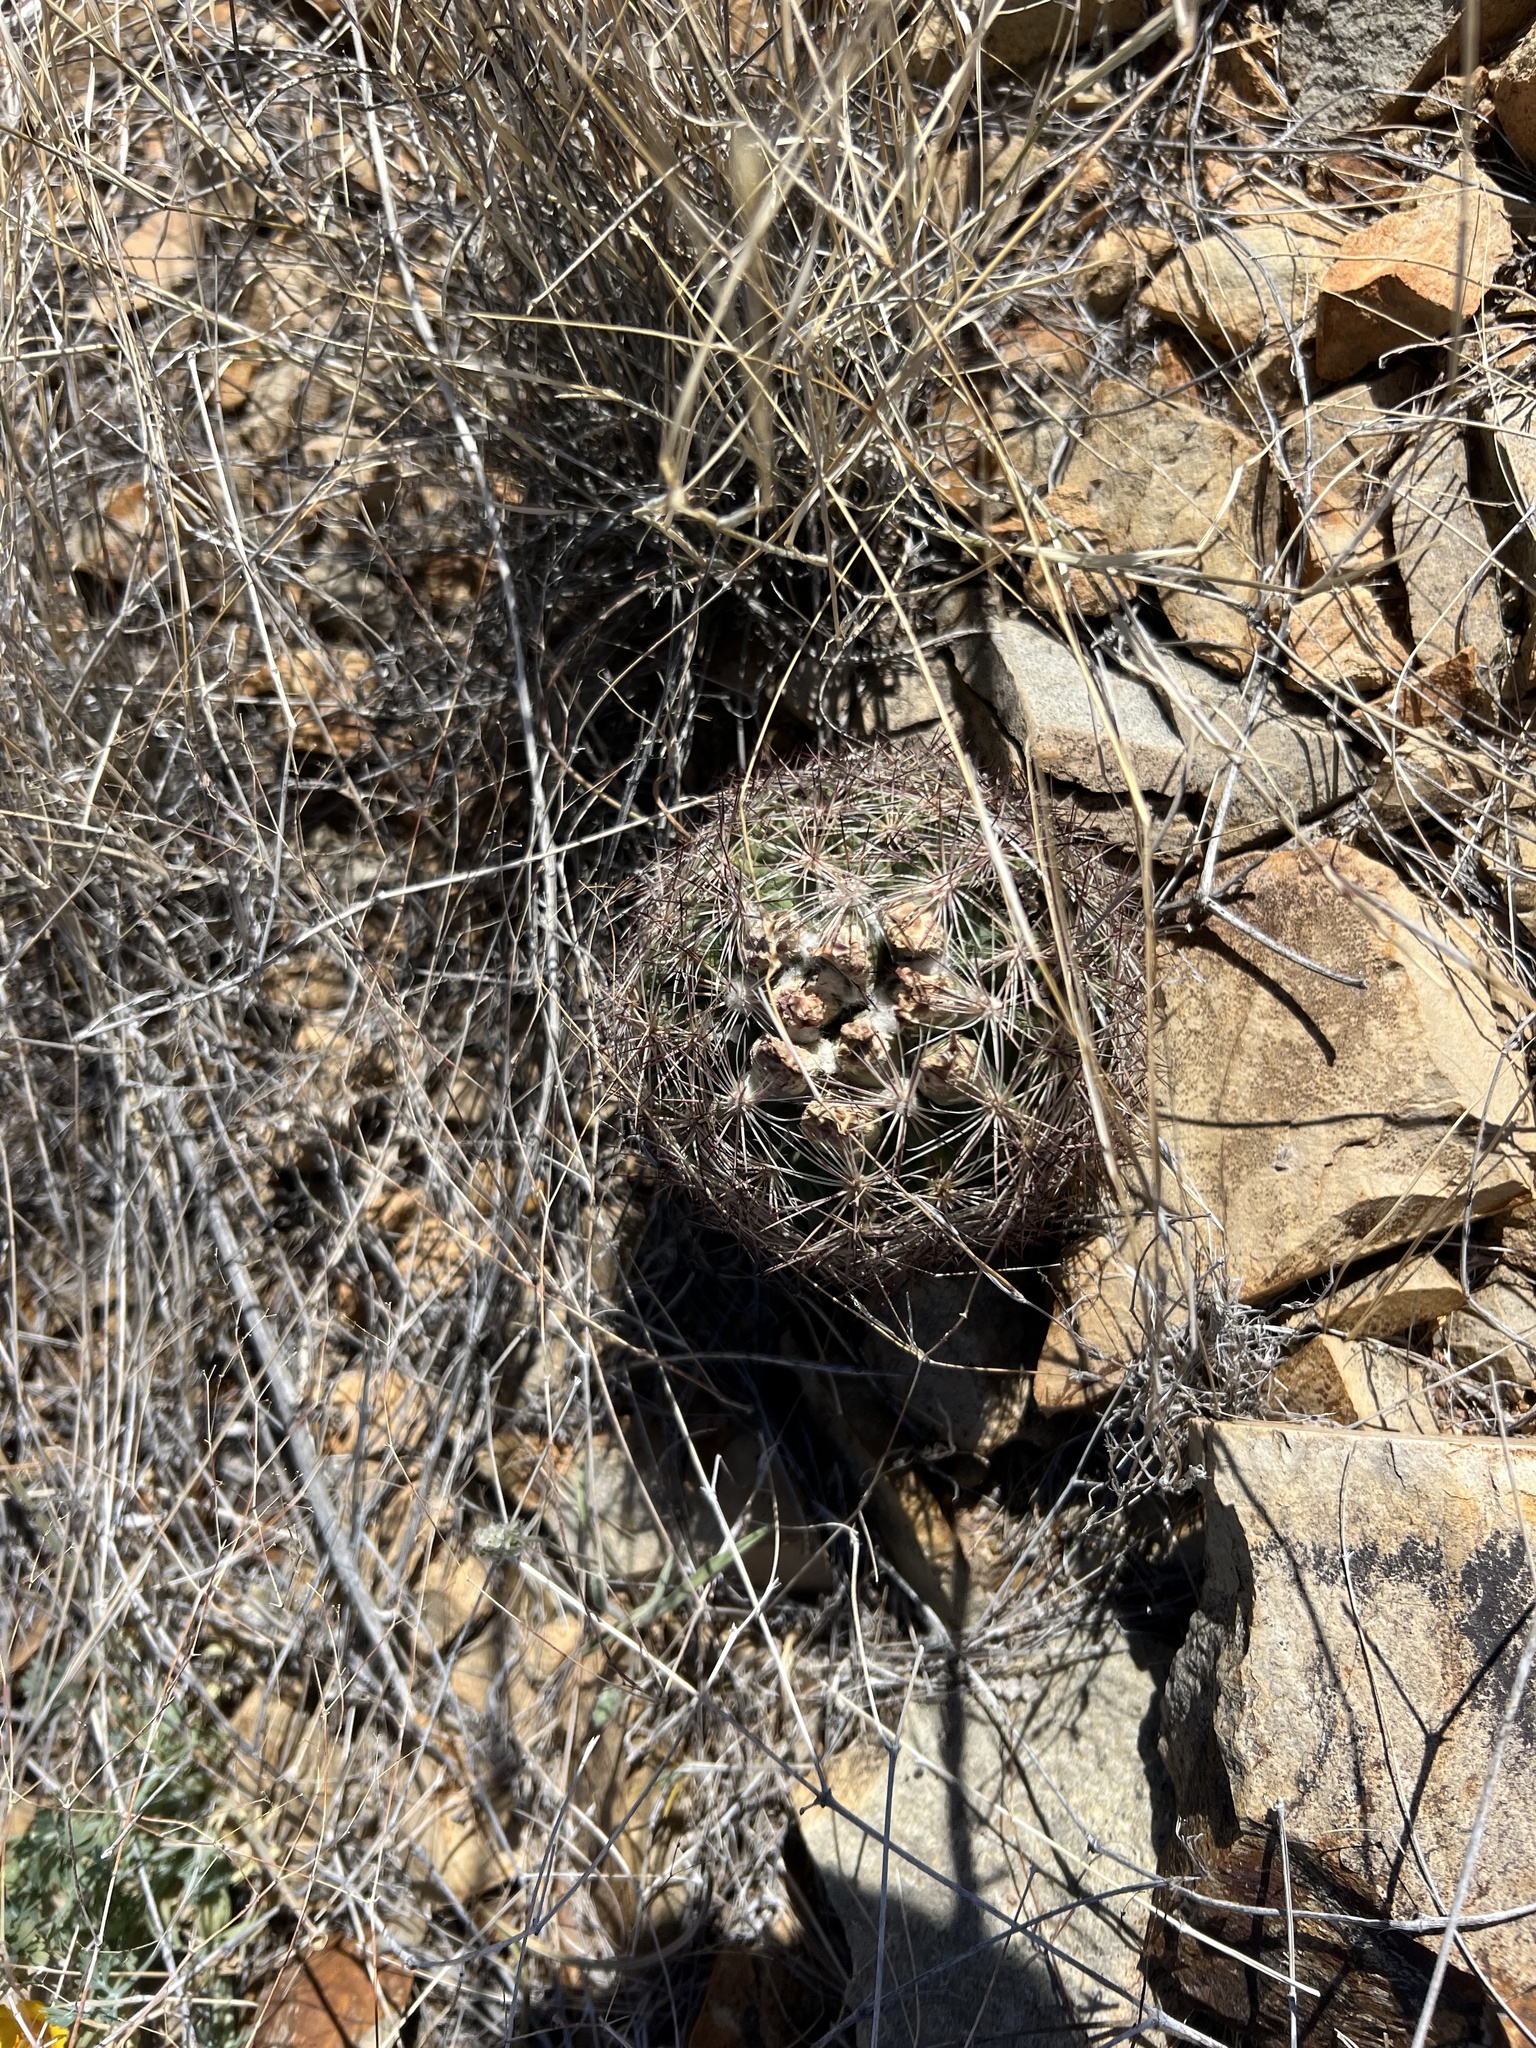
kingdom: Plantae
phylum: Tracheophyta
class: Magnoliopsida
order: Caryophyllales
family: Cactaceae
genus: Sclerocactus
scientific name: Sclerocactus intertextus
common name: White fish-hook cactus
